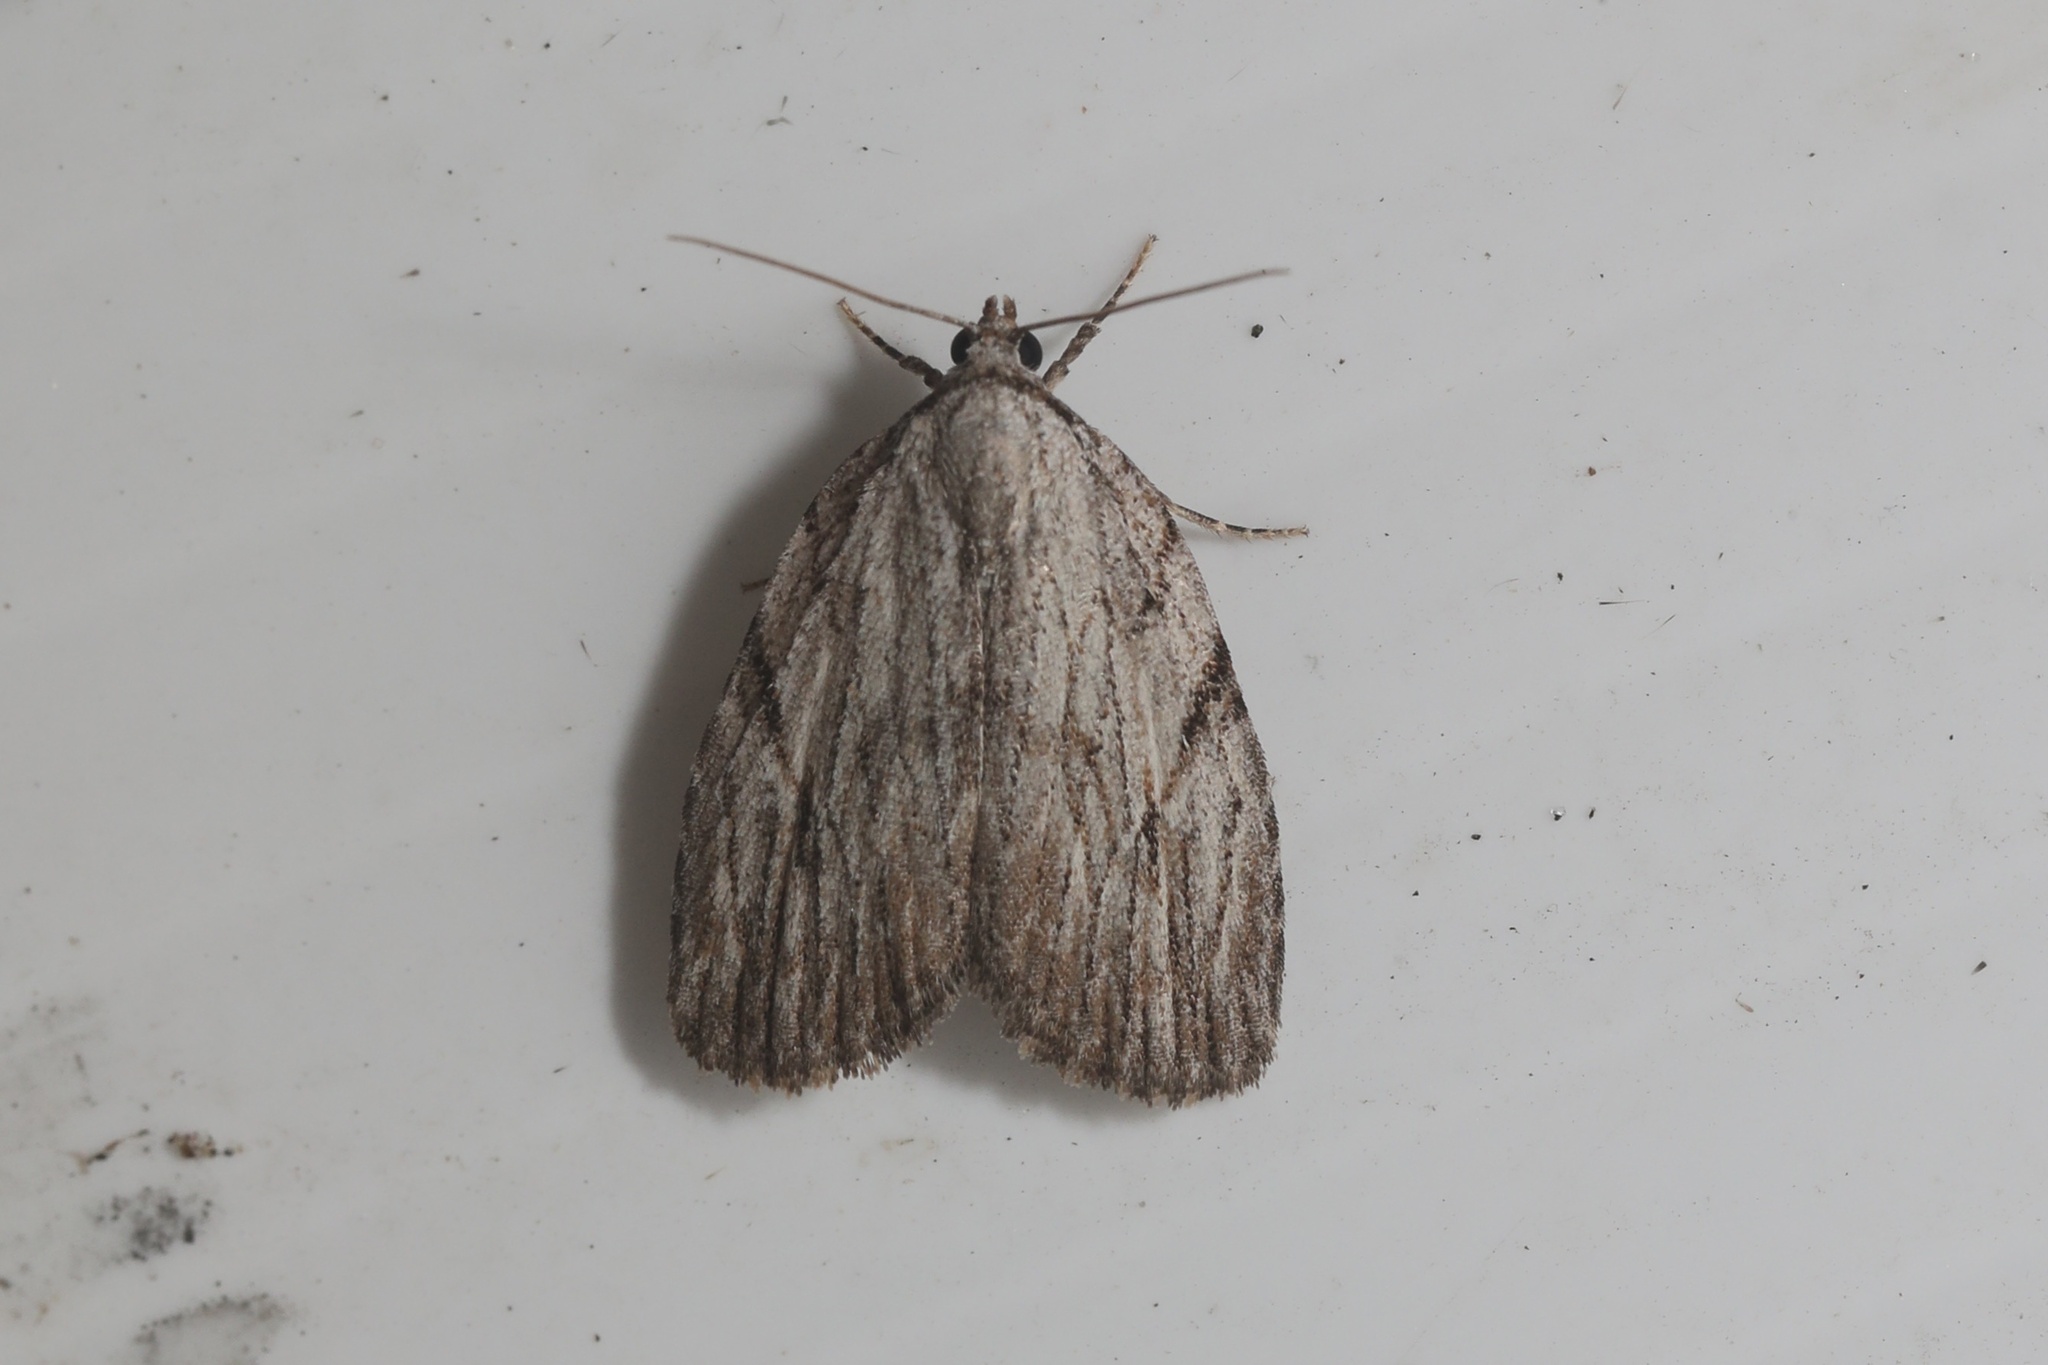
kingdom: Animalia
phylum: Arthropoda
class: Insecta
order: Lepidoptera
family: Noctuidae
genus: Balsa
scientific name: Balsa tristrigella
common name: Three-lined balsa moth
